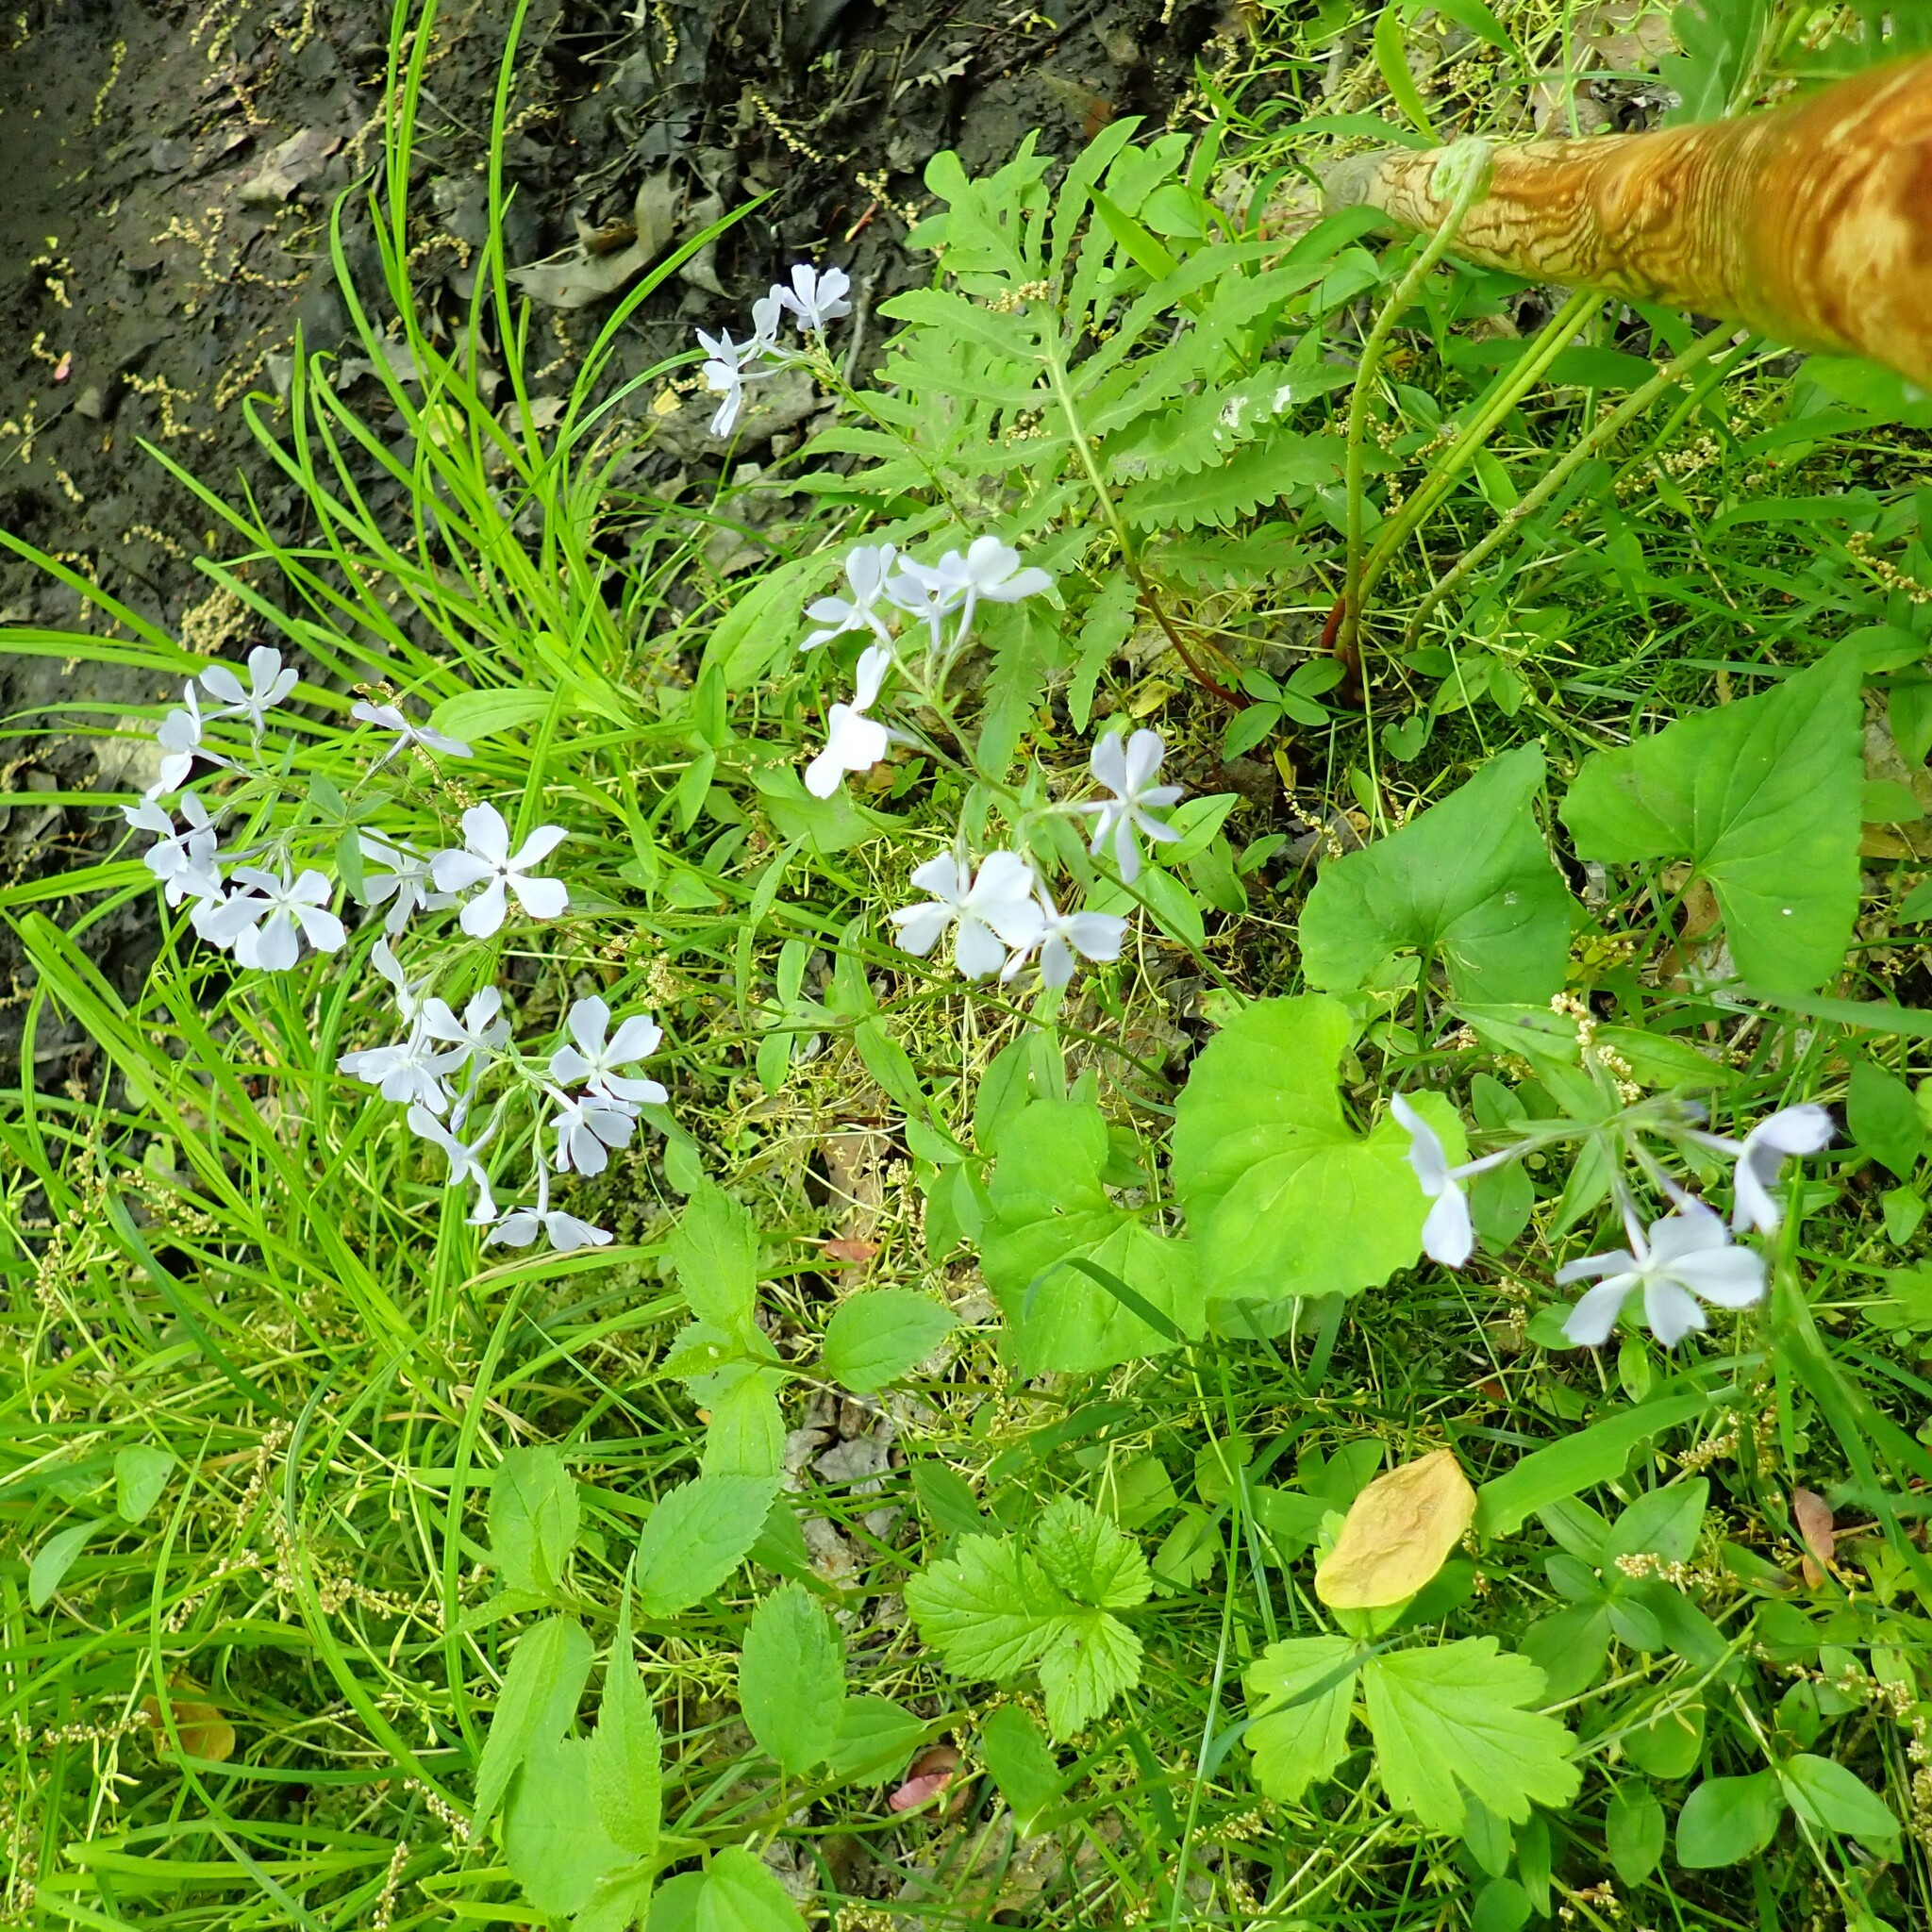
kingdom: Plantae
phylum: Tracheophyta
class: Magnoliopsida
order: Ericales
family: Polemoniaceae
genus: Phlox
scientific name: Phlox divaricata
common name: Blue phlox
